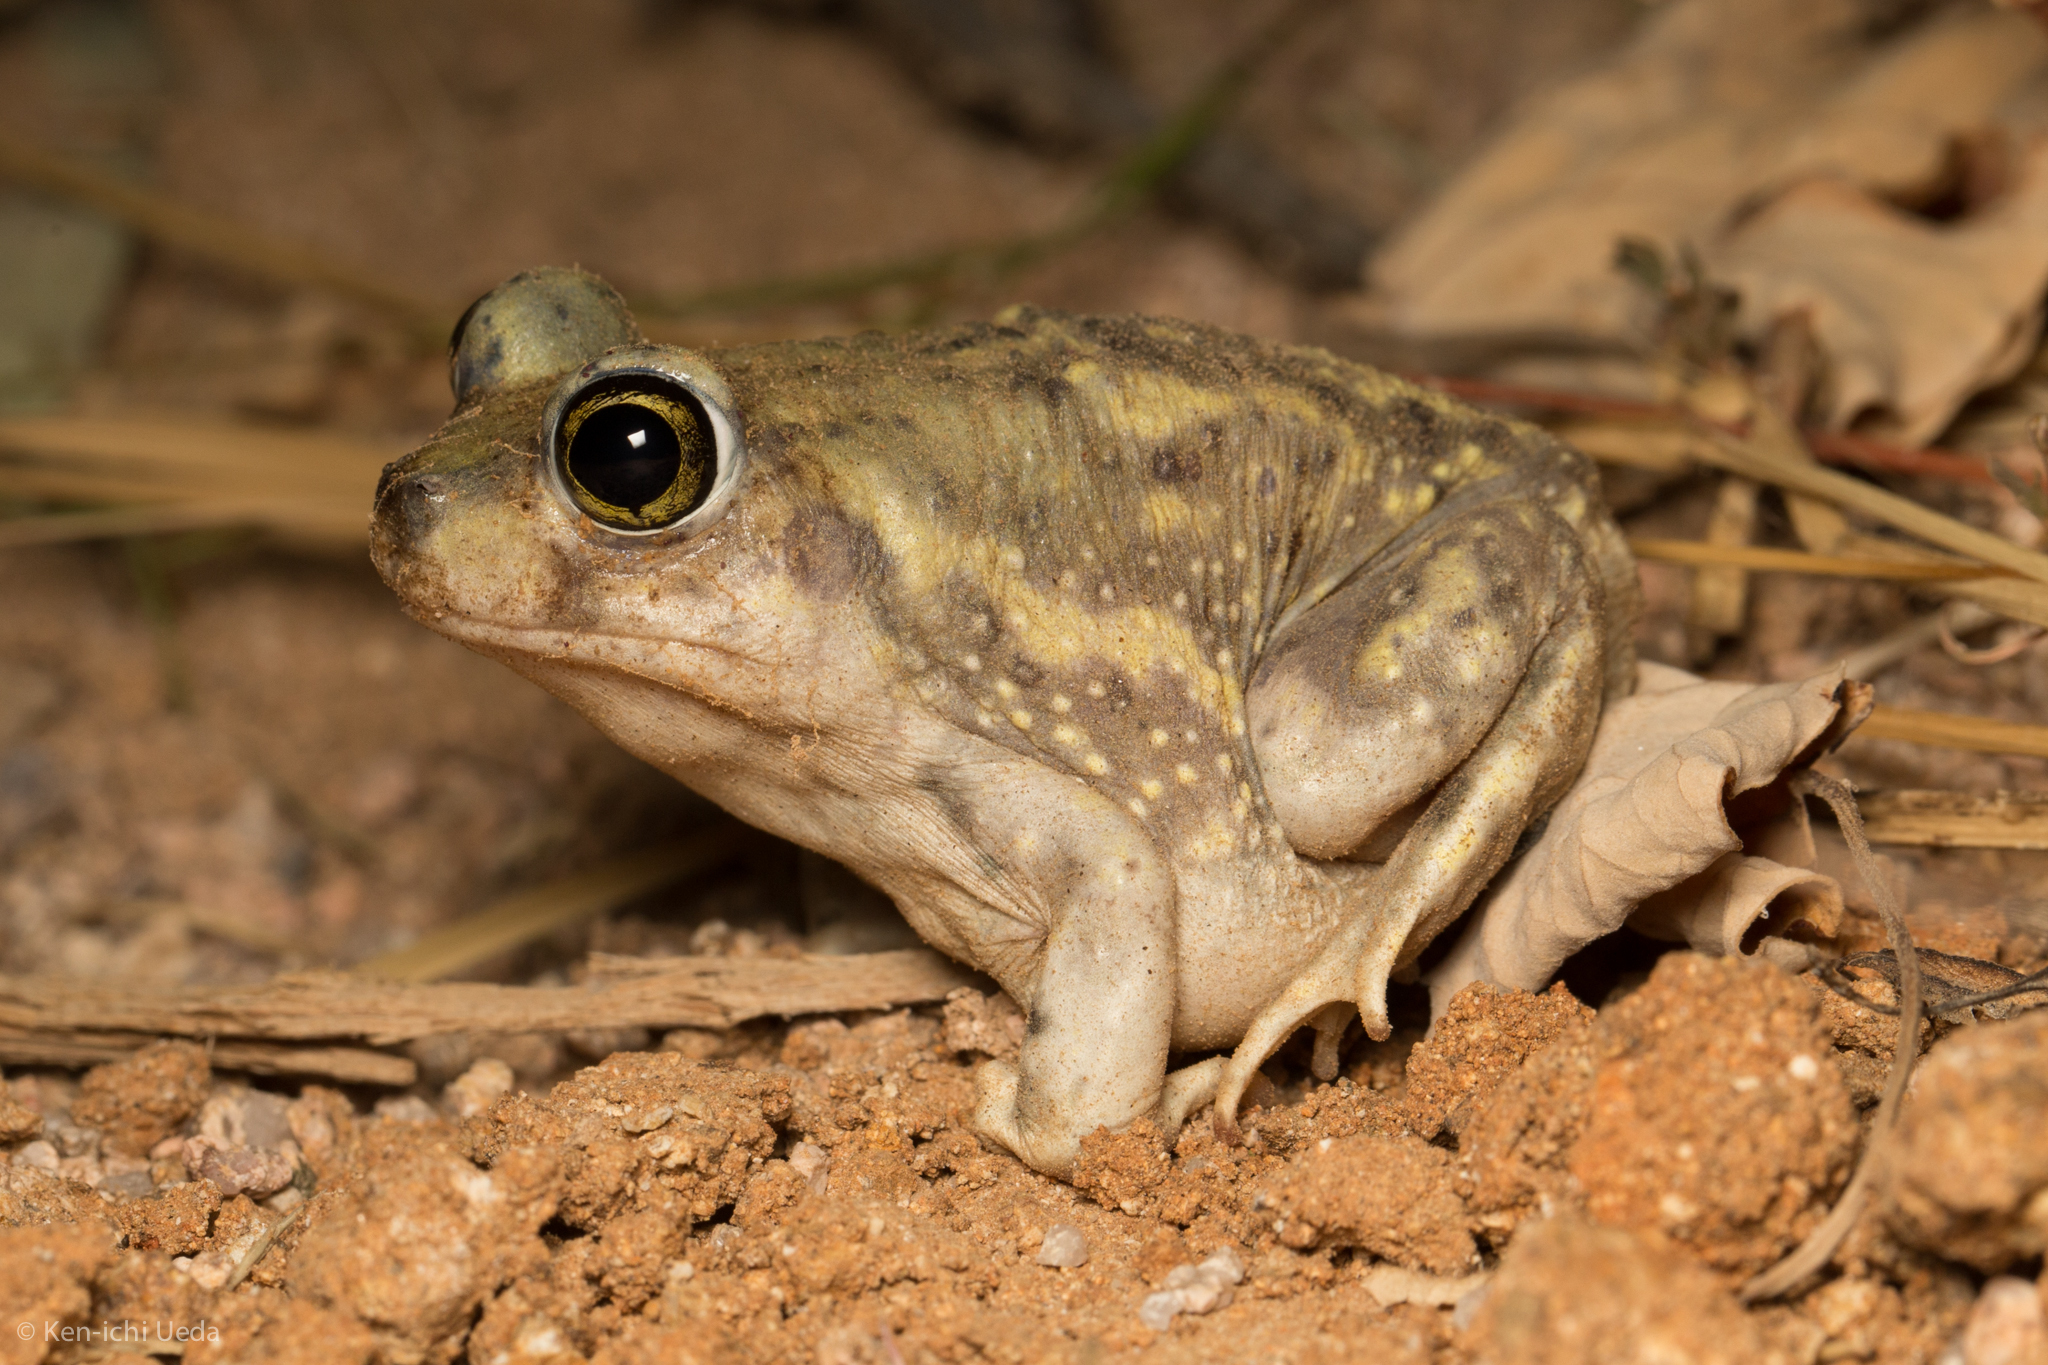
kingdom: Animalia
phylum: Chordata
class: Amphibia
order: Anura
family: Scaphiopodidae
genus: Scaphiopus
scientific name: Scaphiopus couchii
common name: Couch's spadefoot toad
